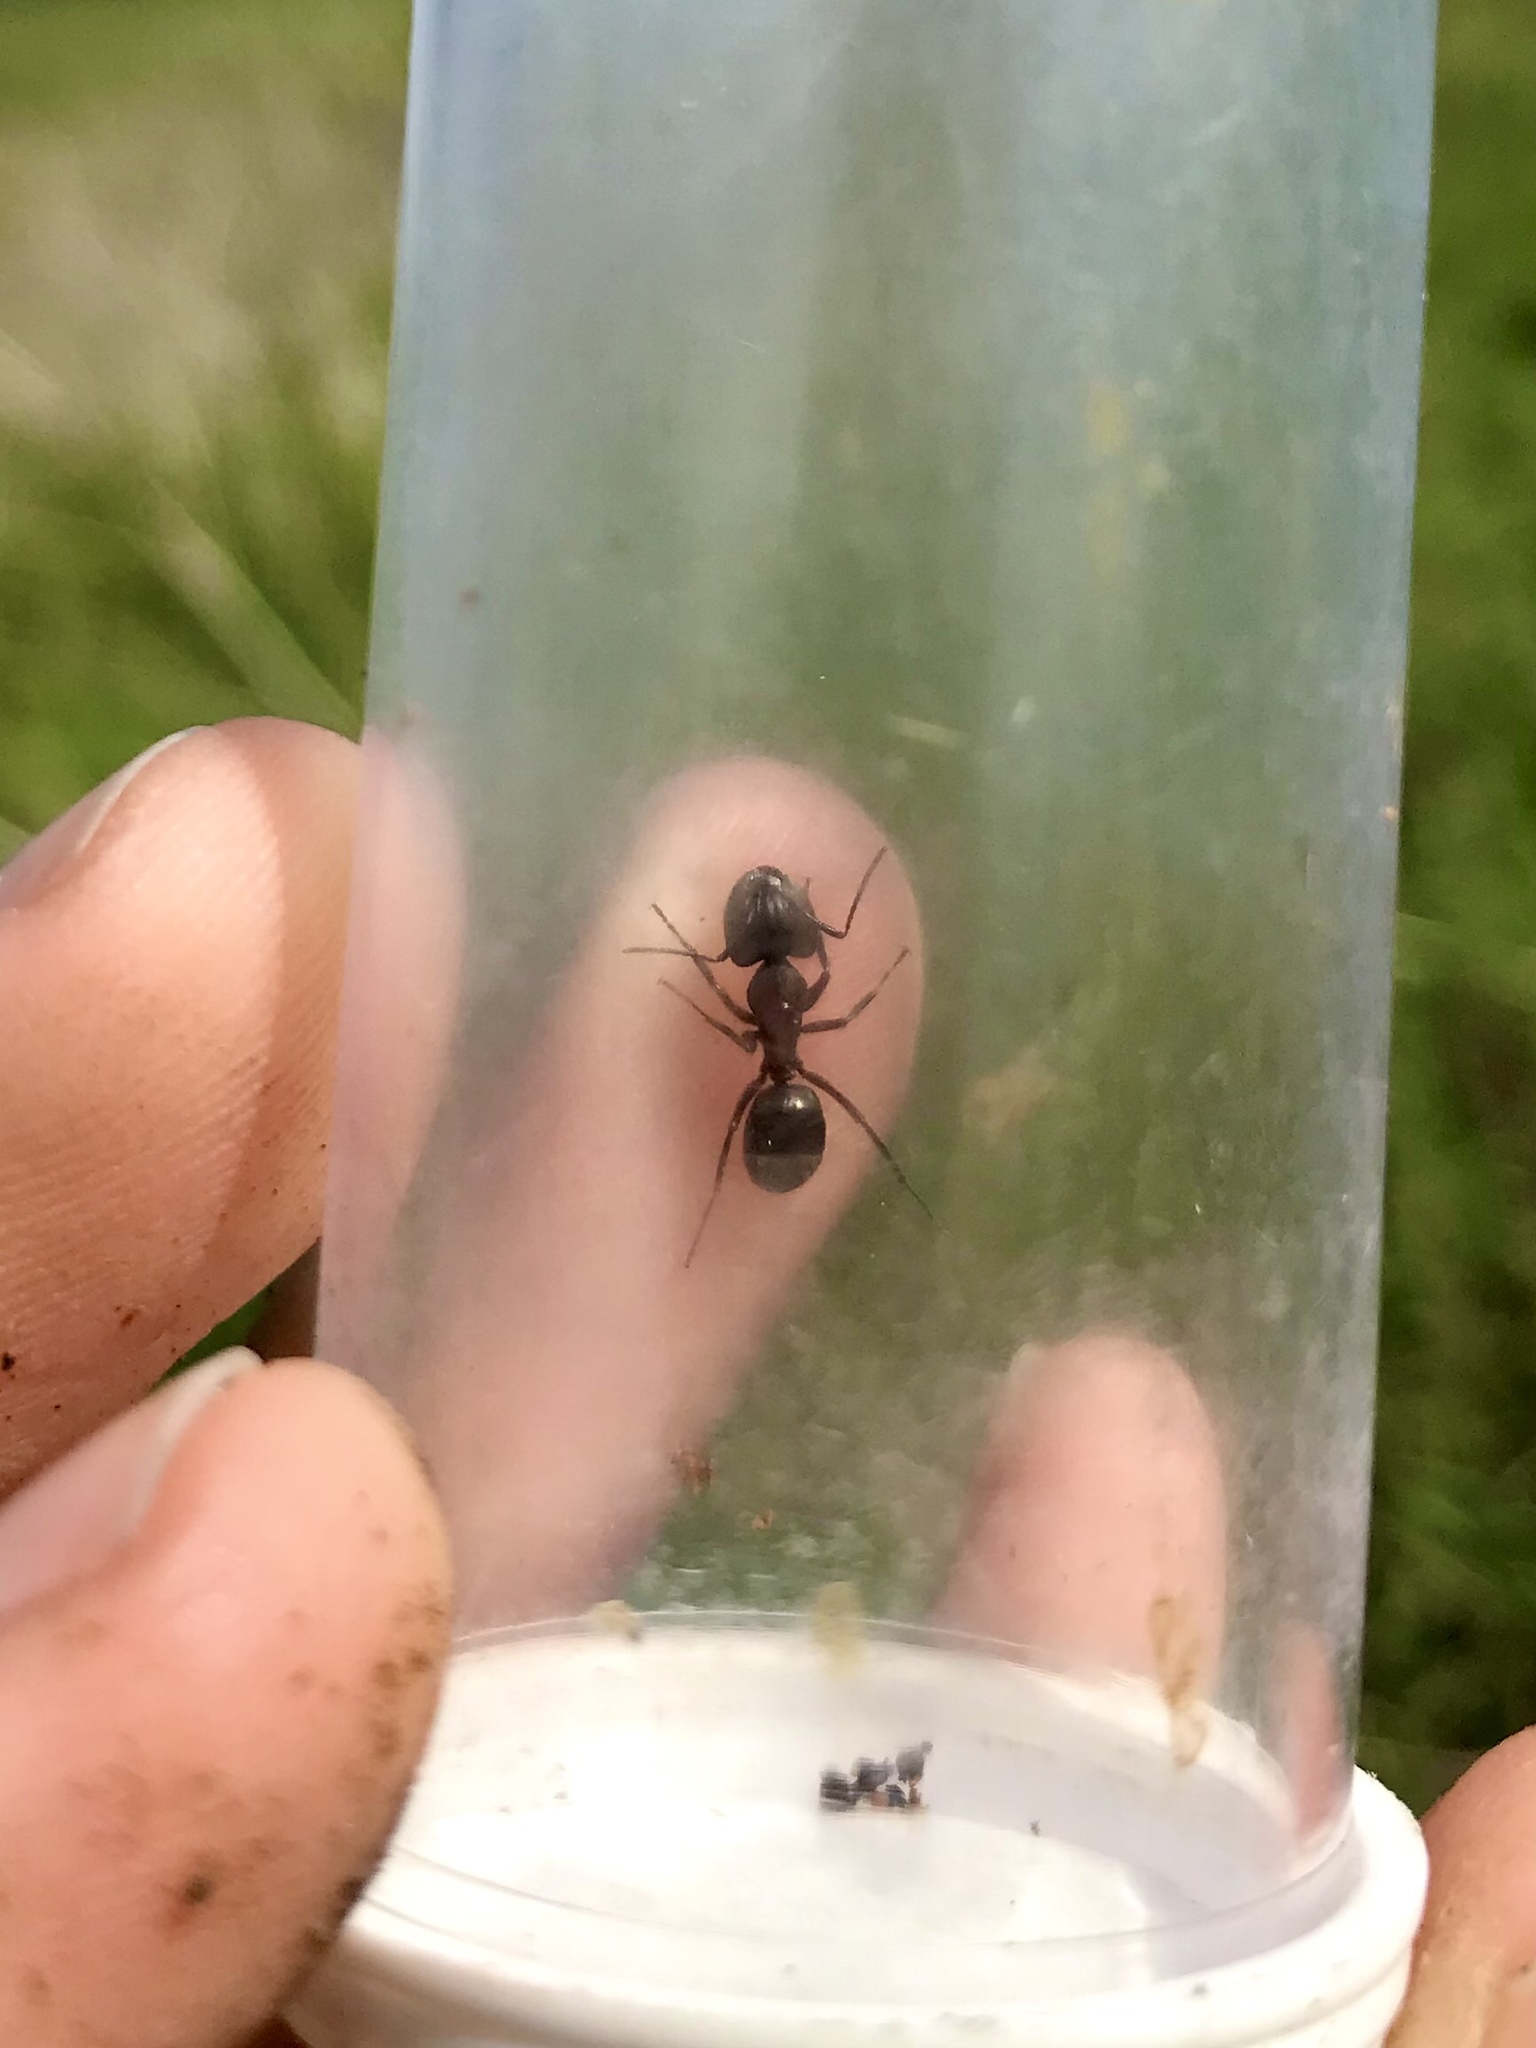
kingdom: Animalia
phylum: Arthropoda
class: Insecta
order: Hymenoptera
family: Formicidae
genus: Camponotus
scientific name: Camponotus novaeboracensis
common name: New york carpenter ant
